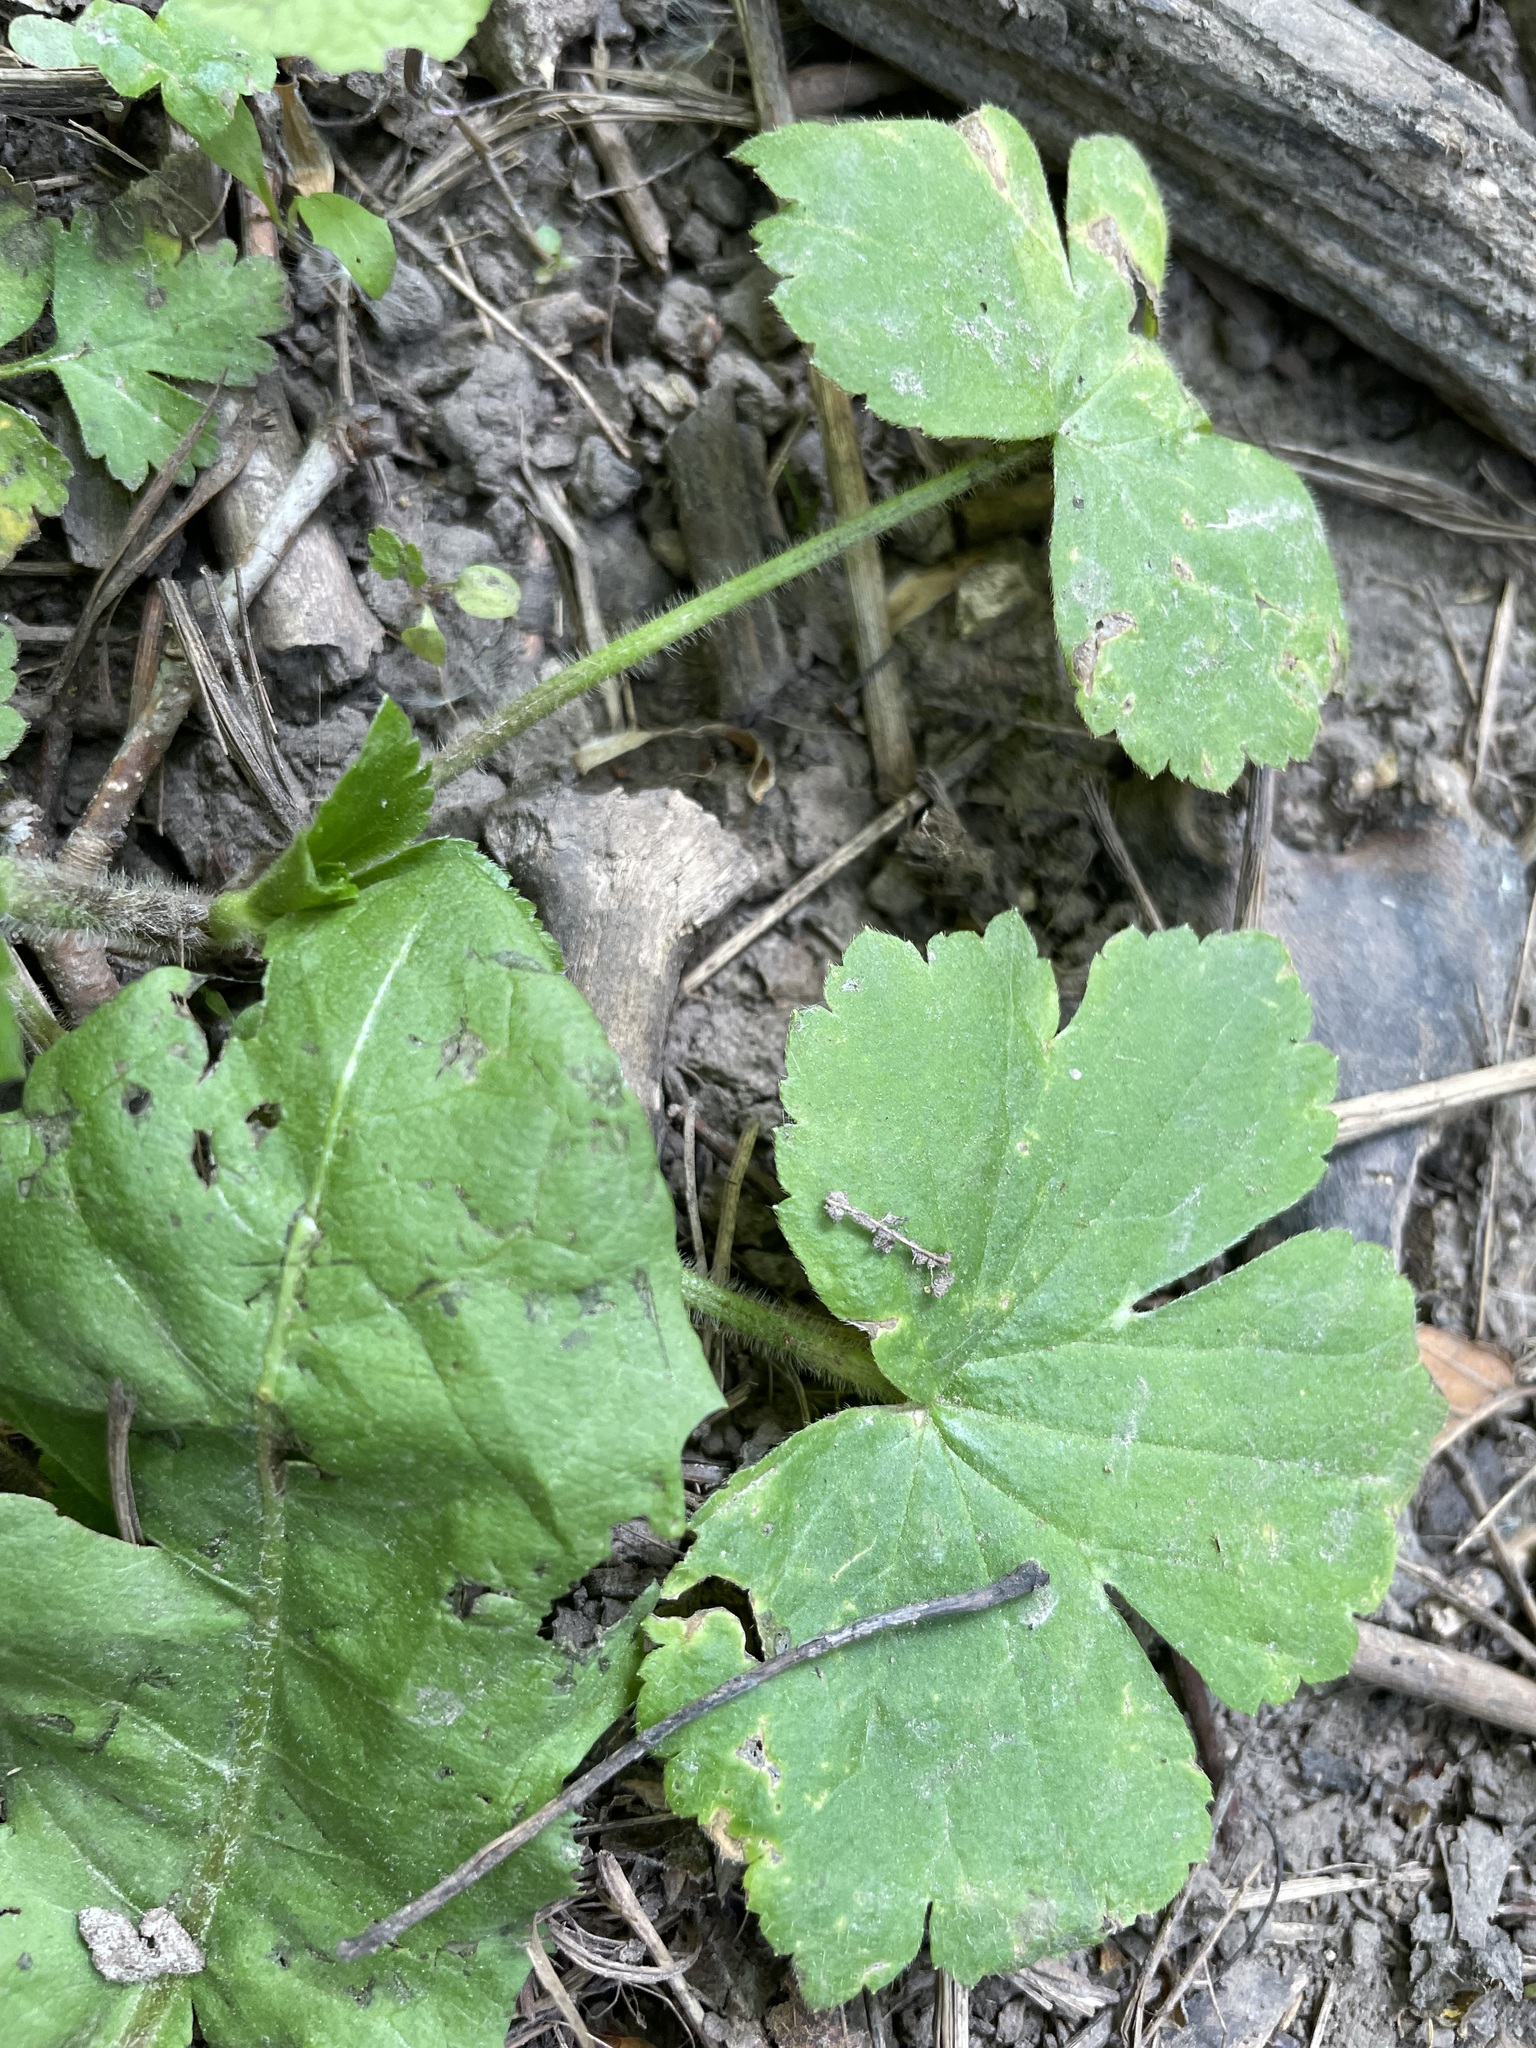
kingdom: Plantae
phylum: Tracheophyta
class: Magnoliopsida
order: Ranunculales
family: Ranunculaceae
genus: Ranunculus
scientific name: Ranunculus recurvatus
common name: Blisterwort
